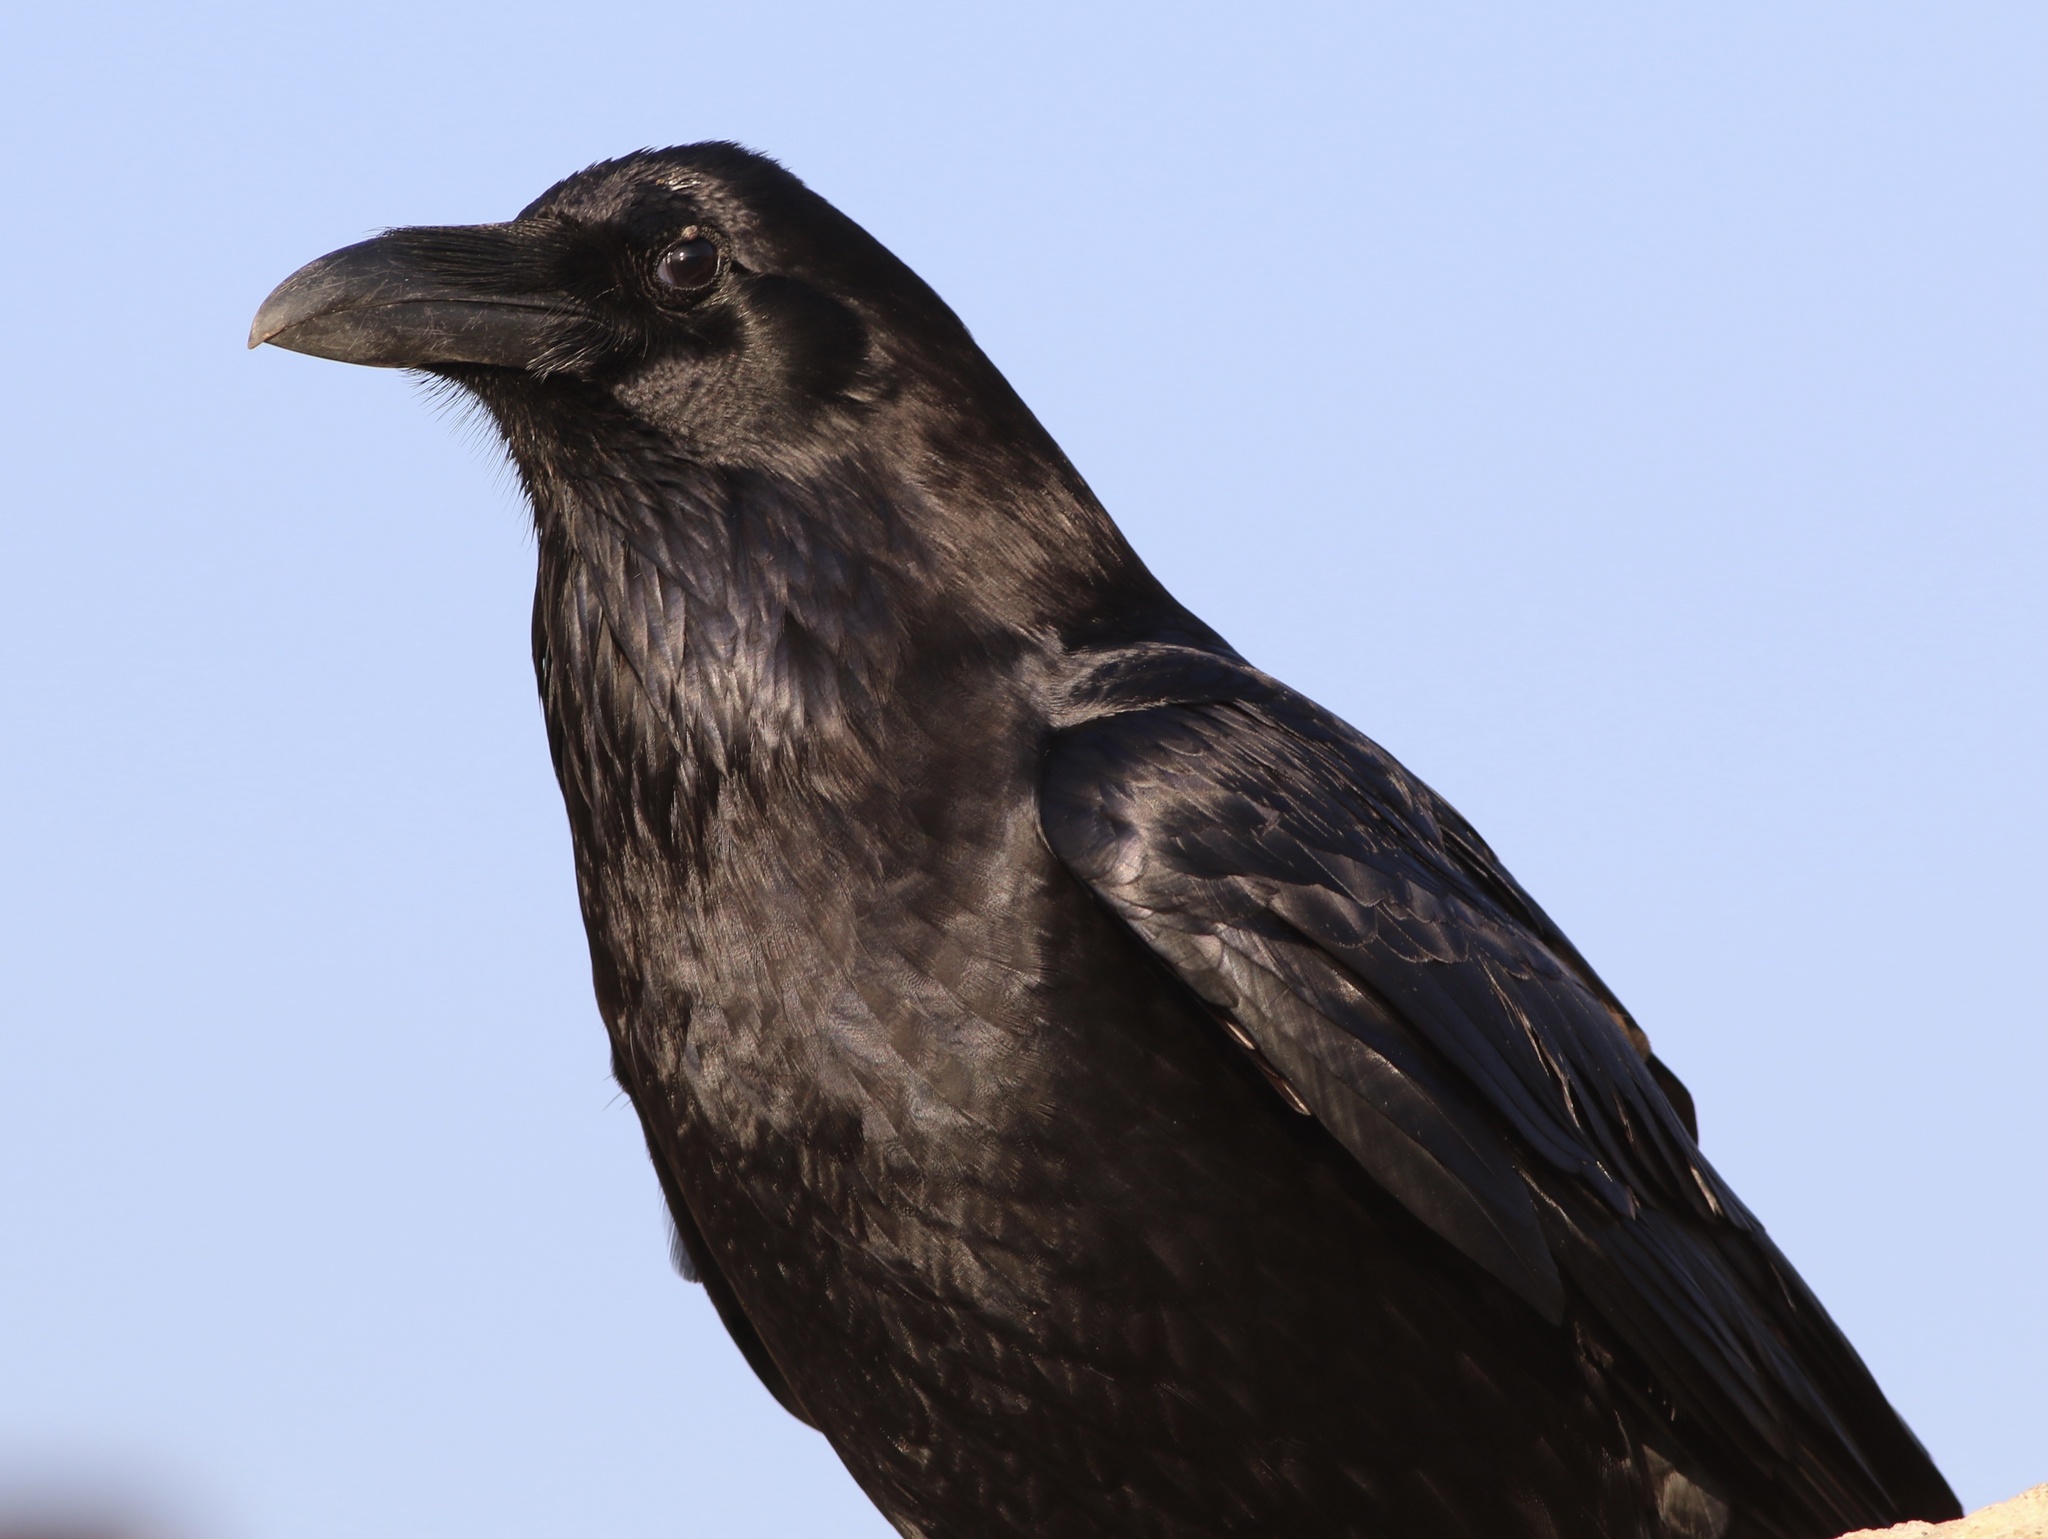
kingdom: Animalia
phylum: Chordata
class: Aves
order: Passeriformes
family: Corvidae
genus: Corvus
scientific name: Corvus corax
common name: Common raven
